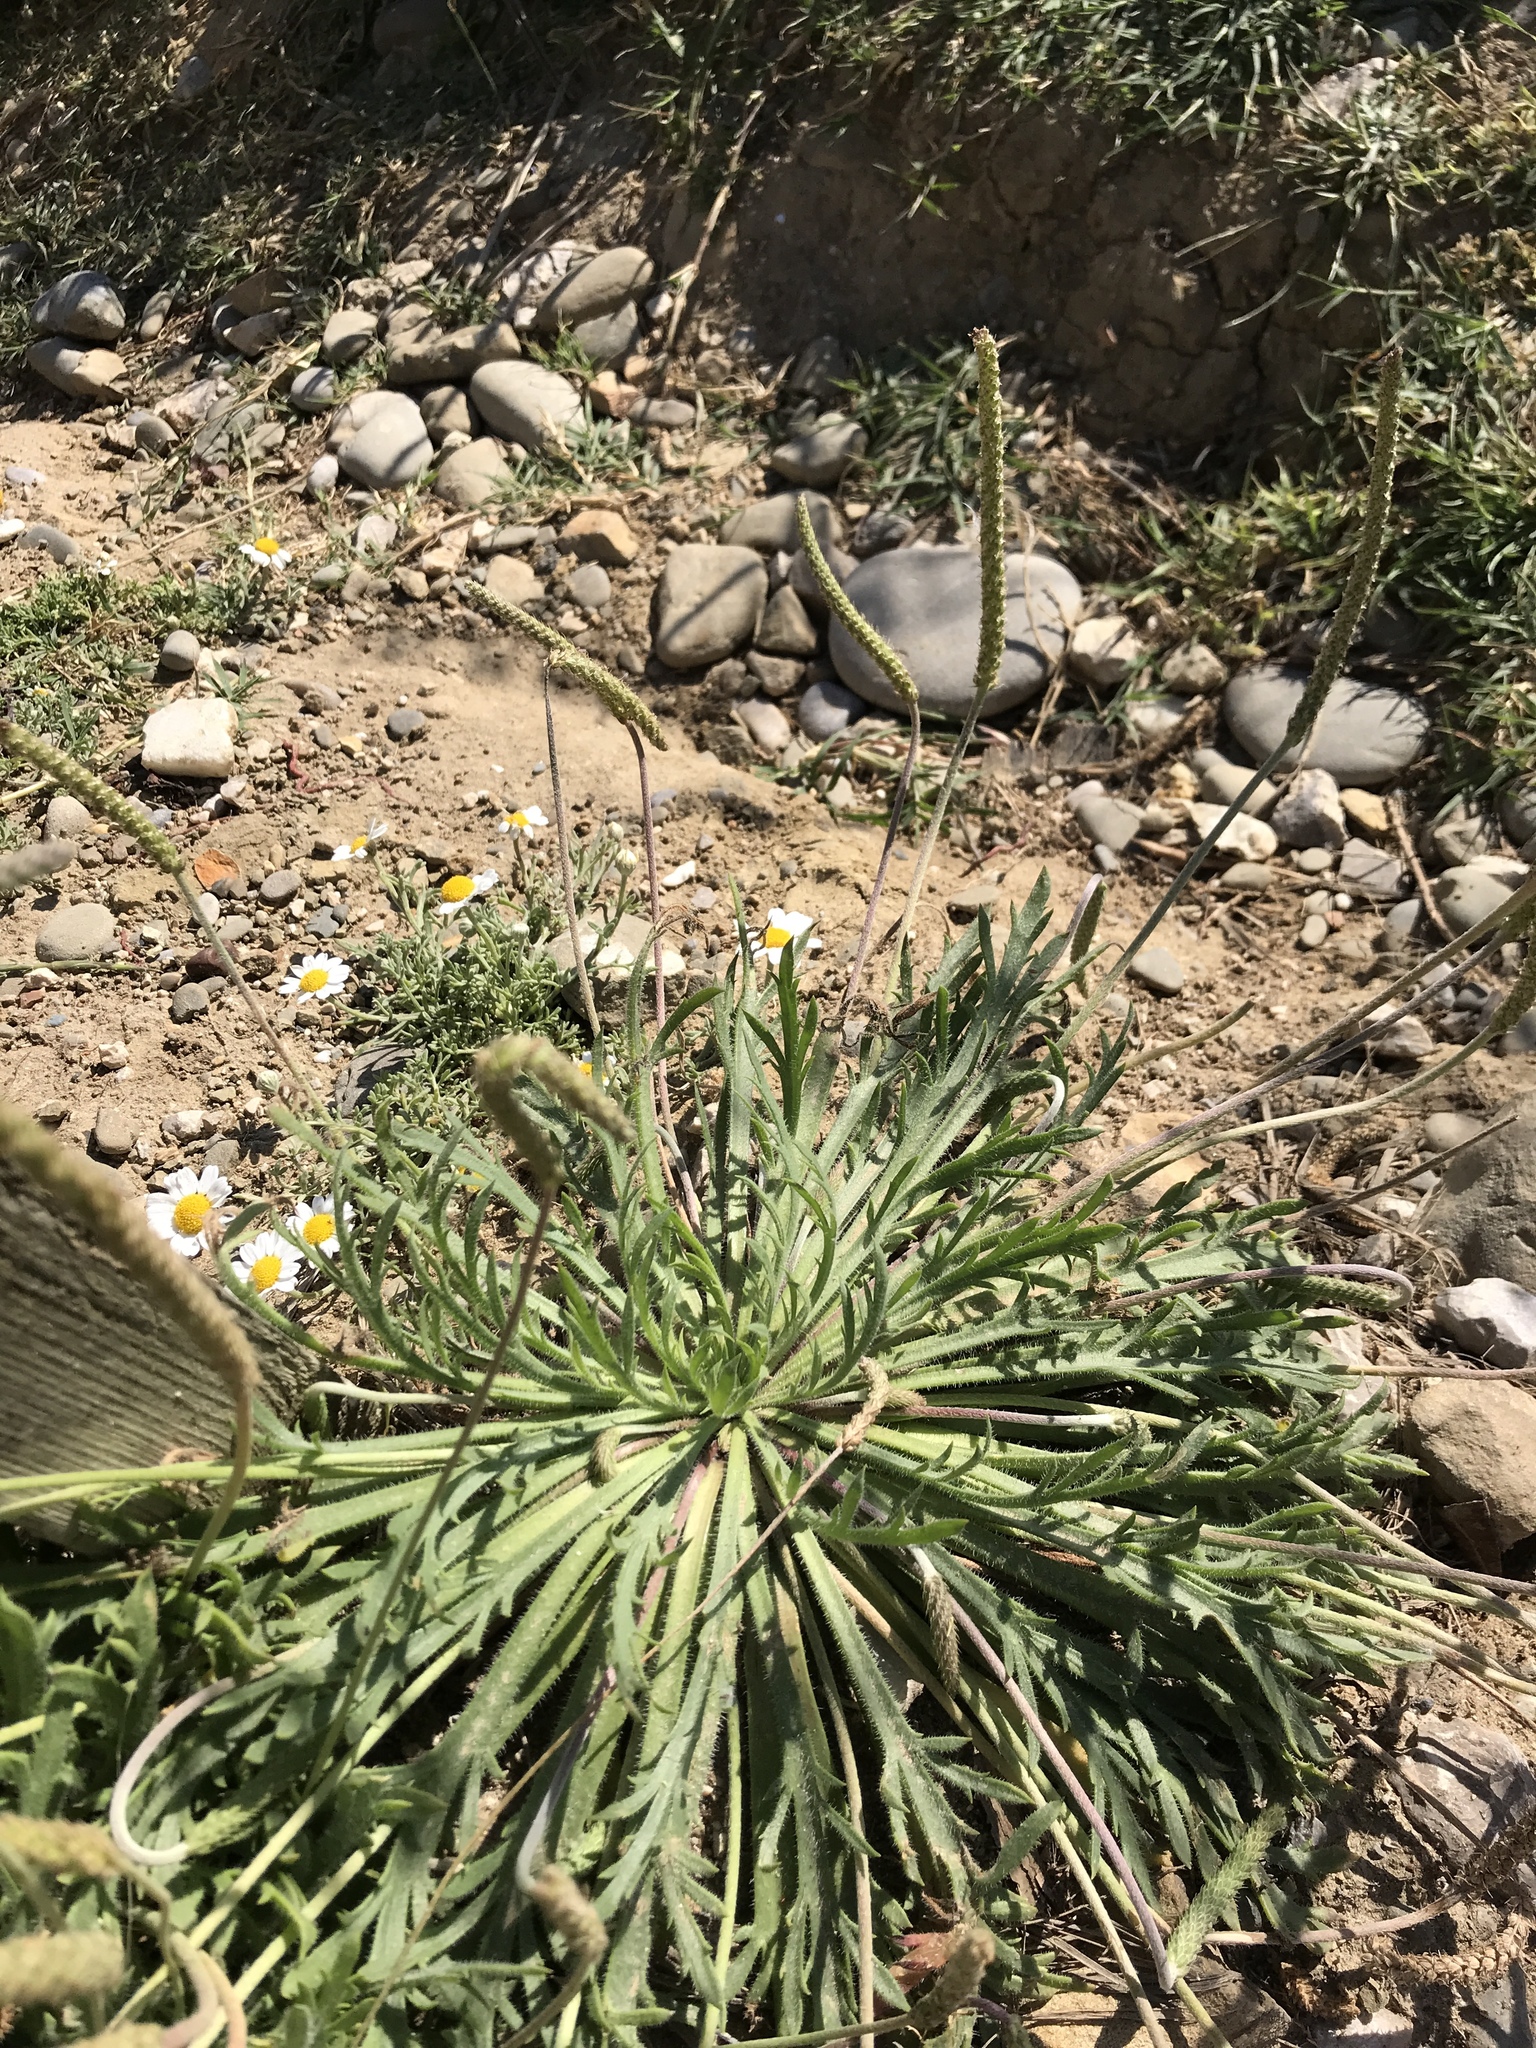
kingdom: Plantae
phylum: Tracheophyta
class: Magnoliopsida
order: Lamiales
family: Plantaginaceae
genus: Plantago
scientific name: Plantago coronopus
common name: Buck's-horn plantain
